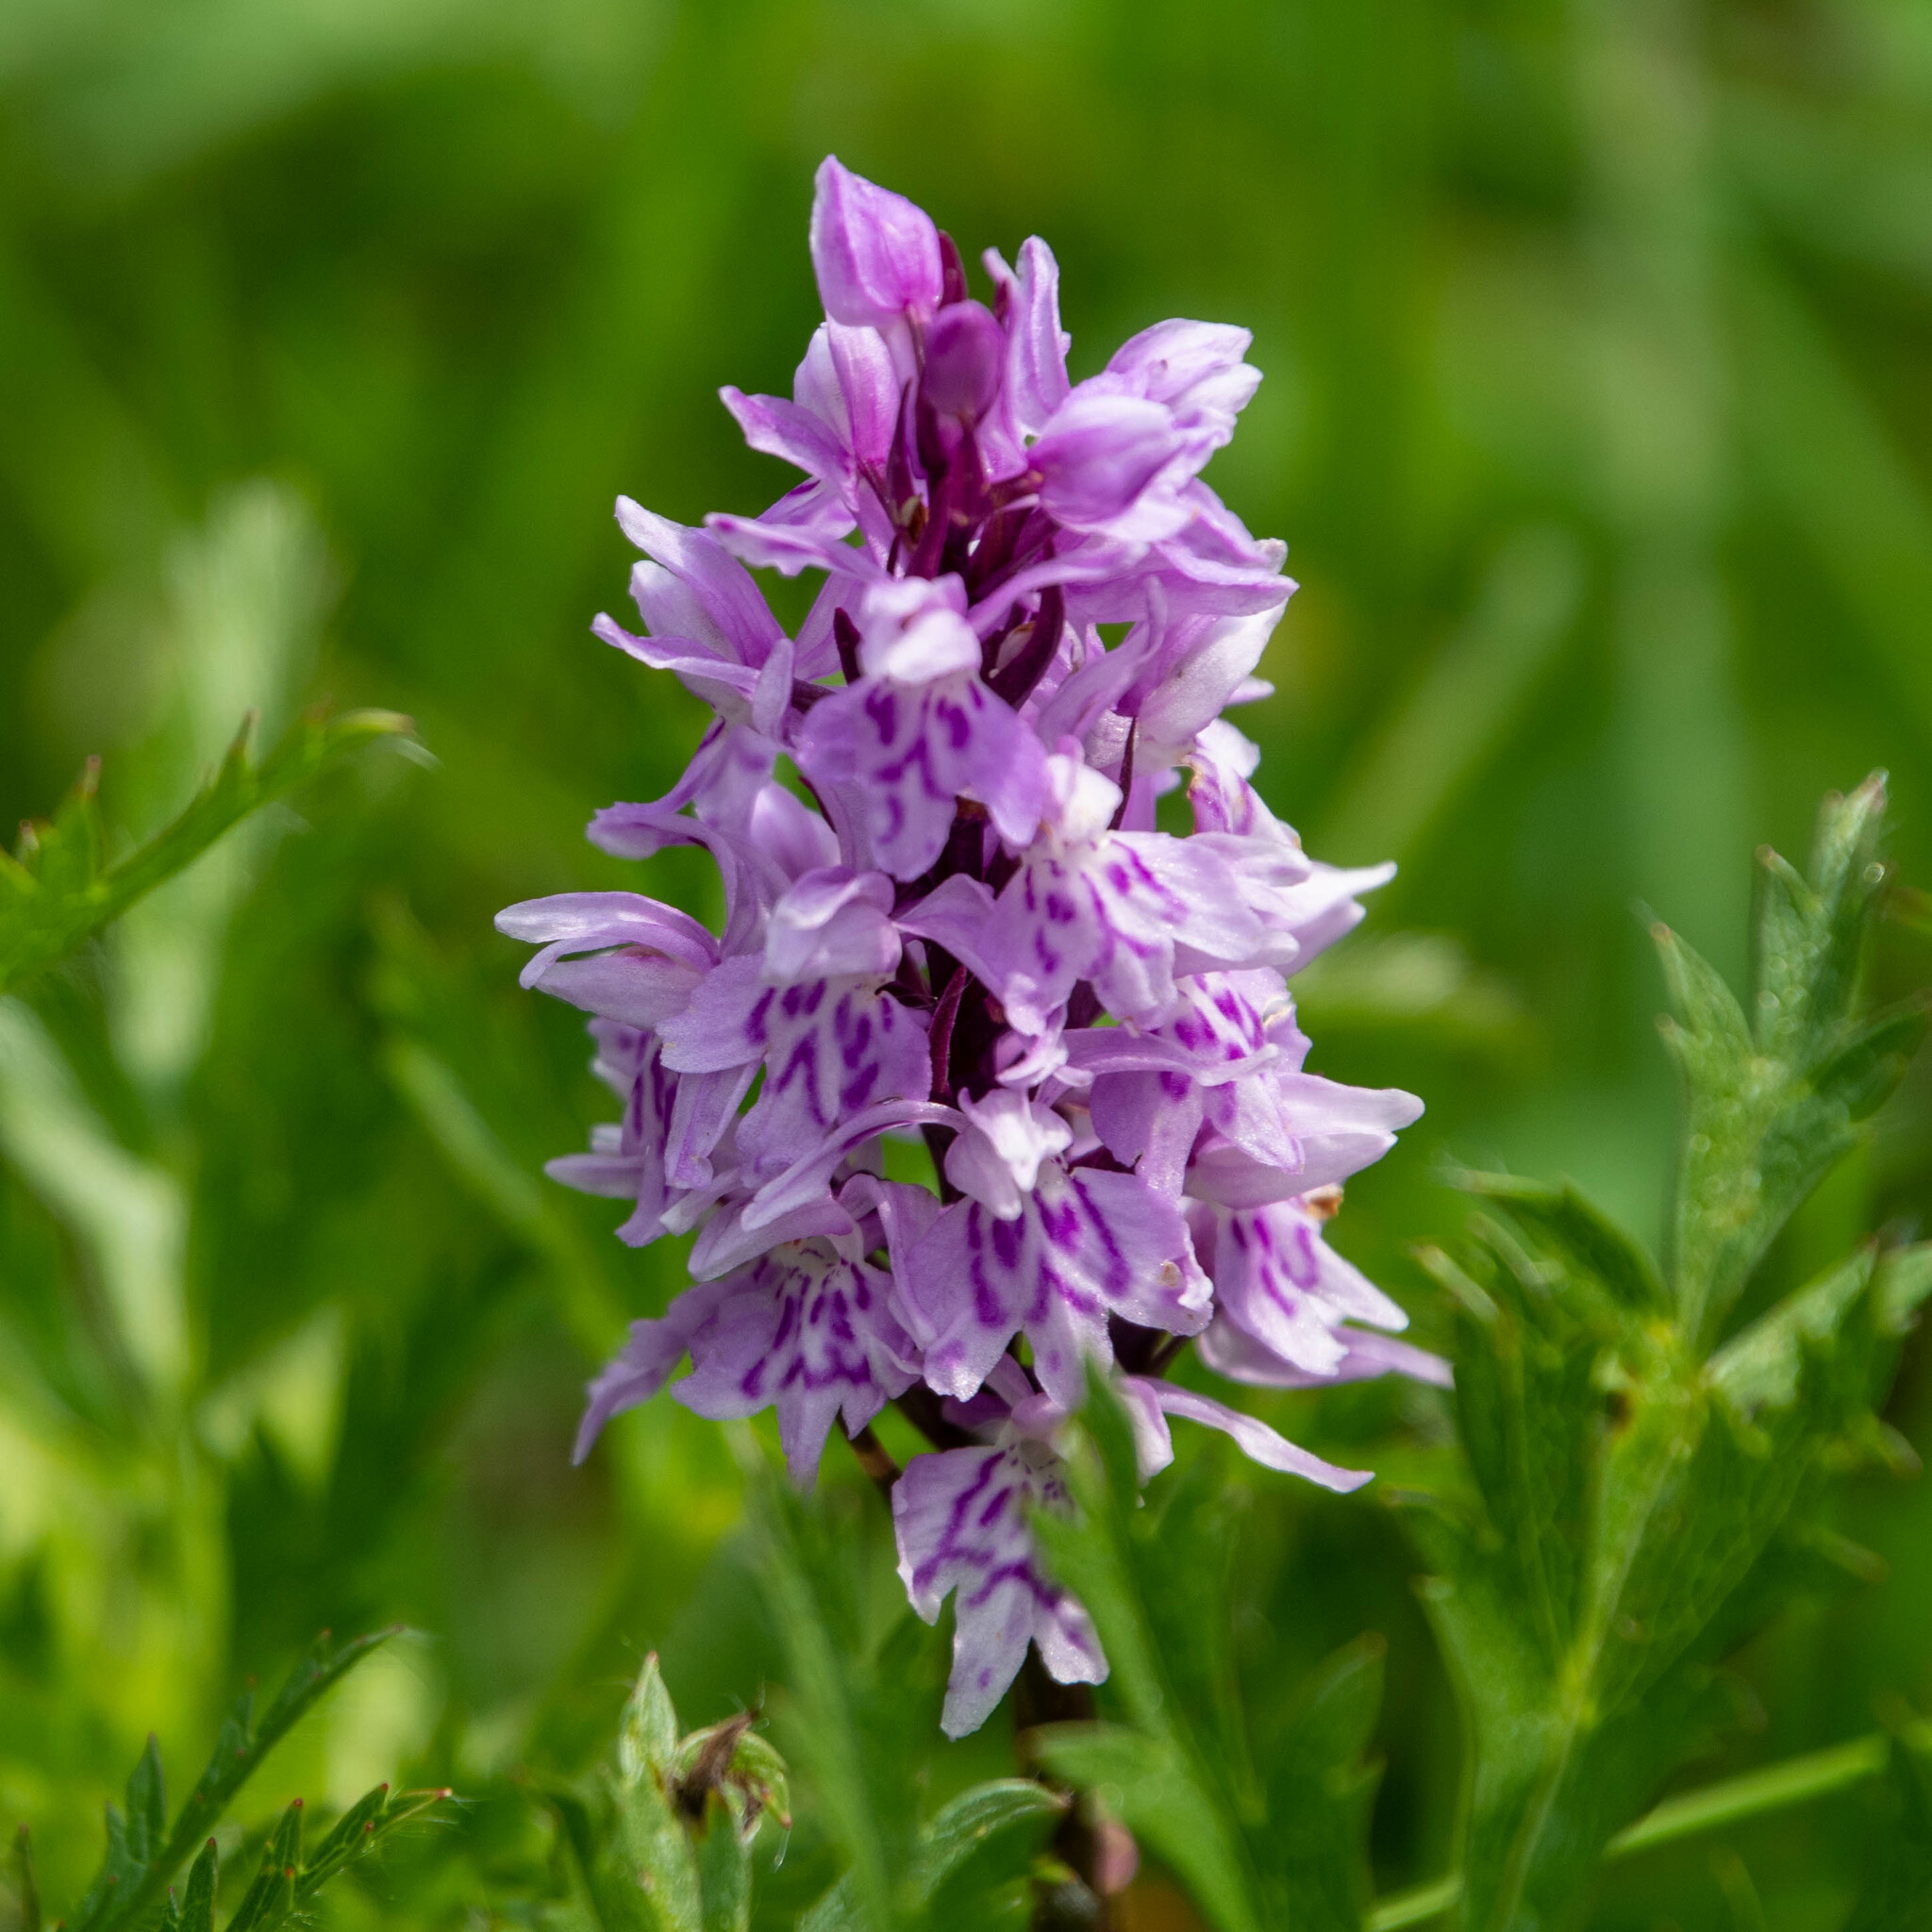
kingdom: Plantae
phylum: Tracheophyta
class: Liliopsida
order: Asparagales
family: Orchidaceae
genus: Dactylorhiza
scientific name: Dactylorhiza maculata
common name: Heath spotted-orchid
